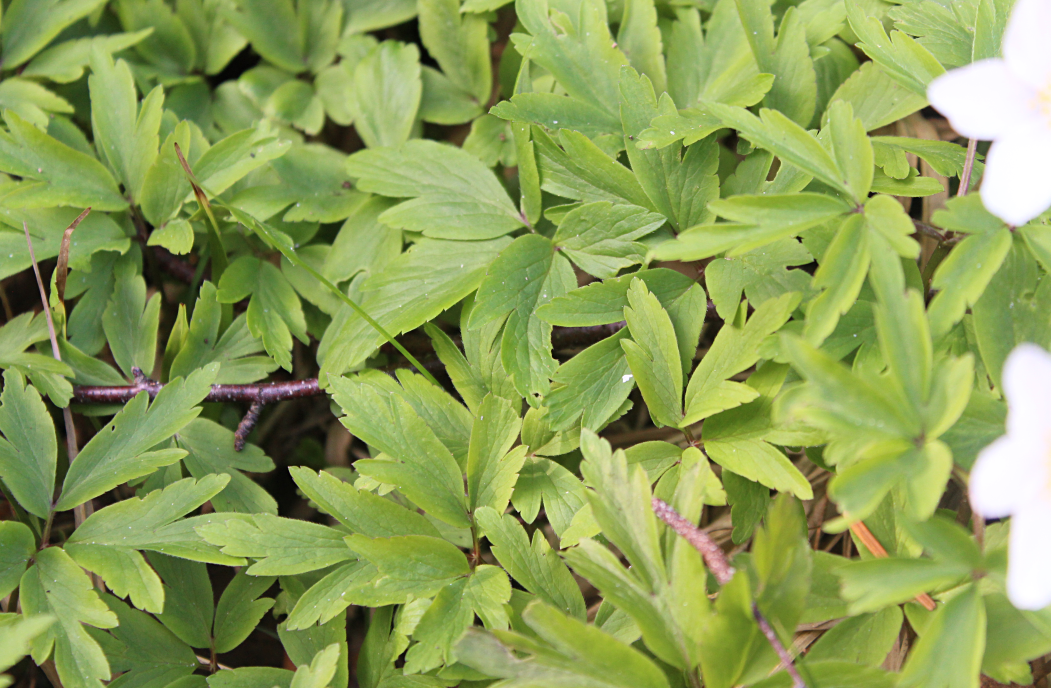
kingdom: Plantae
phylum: Tracheophyta
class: Magnoliopsida
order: Ranunculales
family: Ranunculaceae
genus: Anemone
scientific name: Anemone nemorosa
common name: Wood anemone
